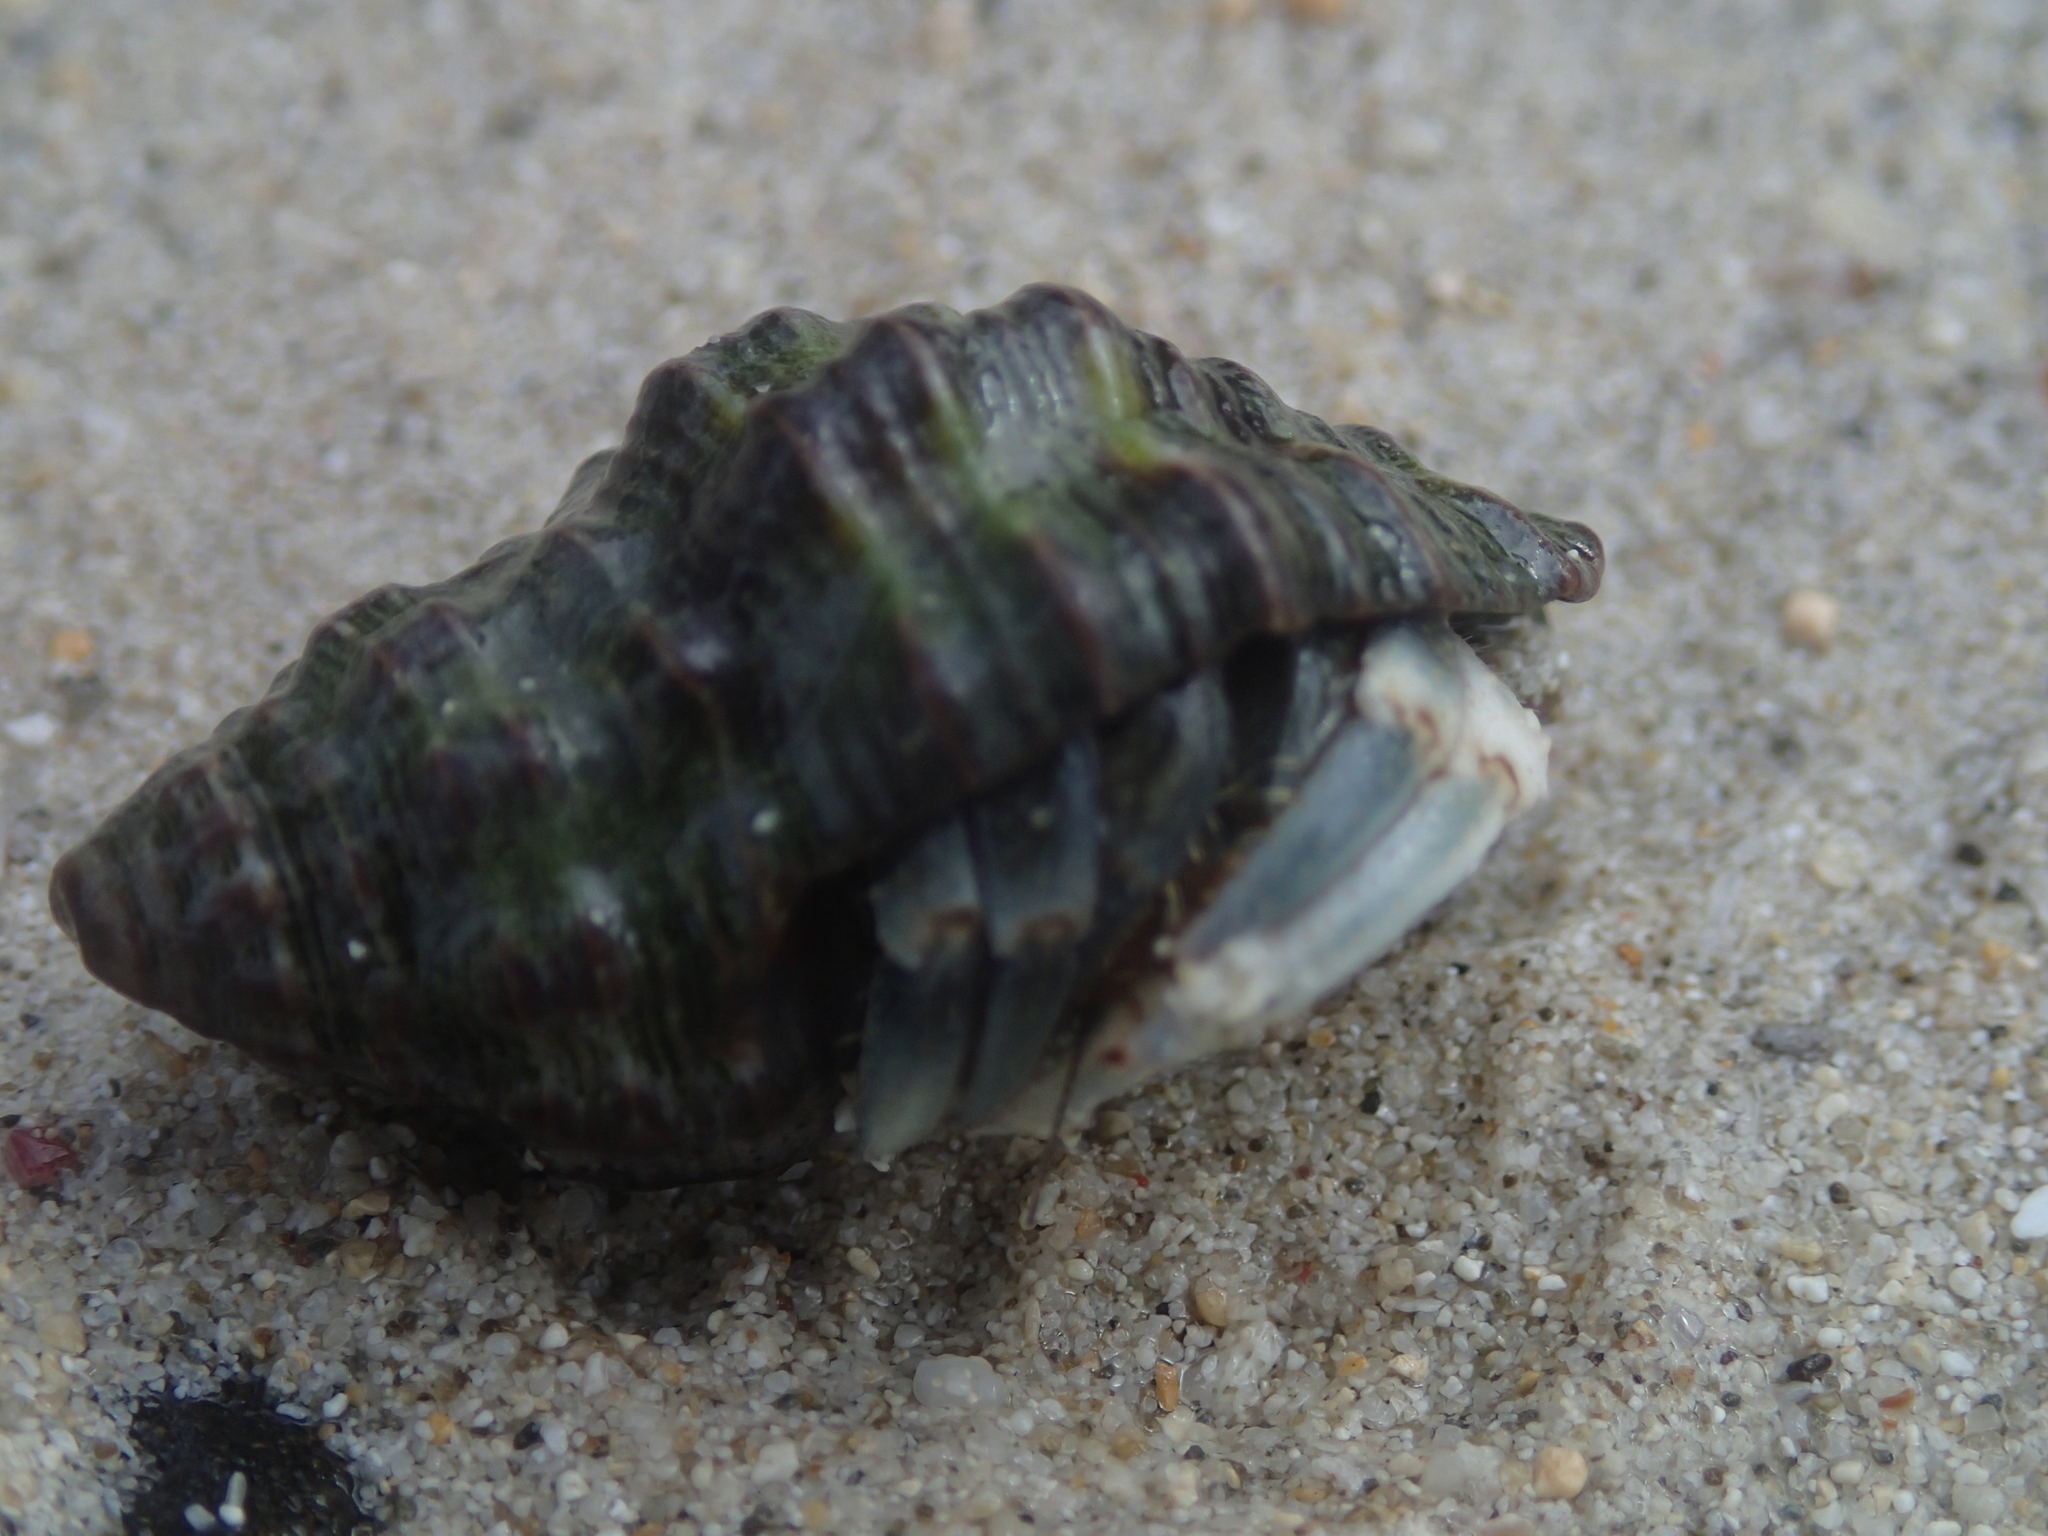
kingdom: Animalia
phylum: Arthropoda
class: Malacostraca
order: Decapoda
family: Coenobitidae
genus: Coenobita
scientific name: Coenobita rugosus
